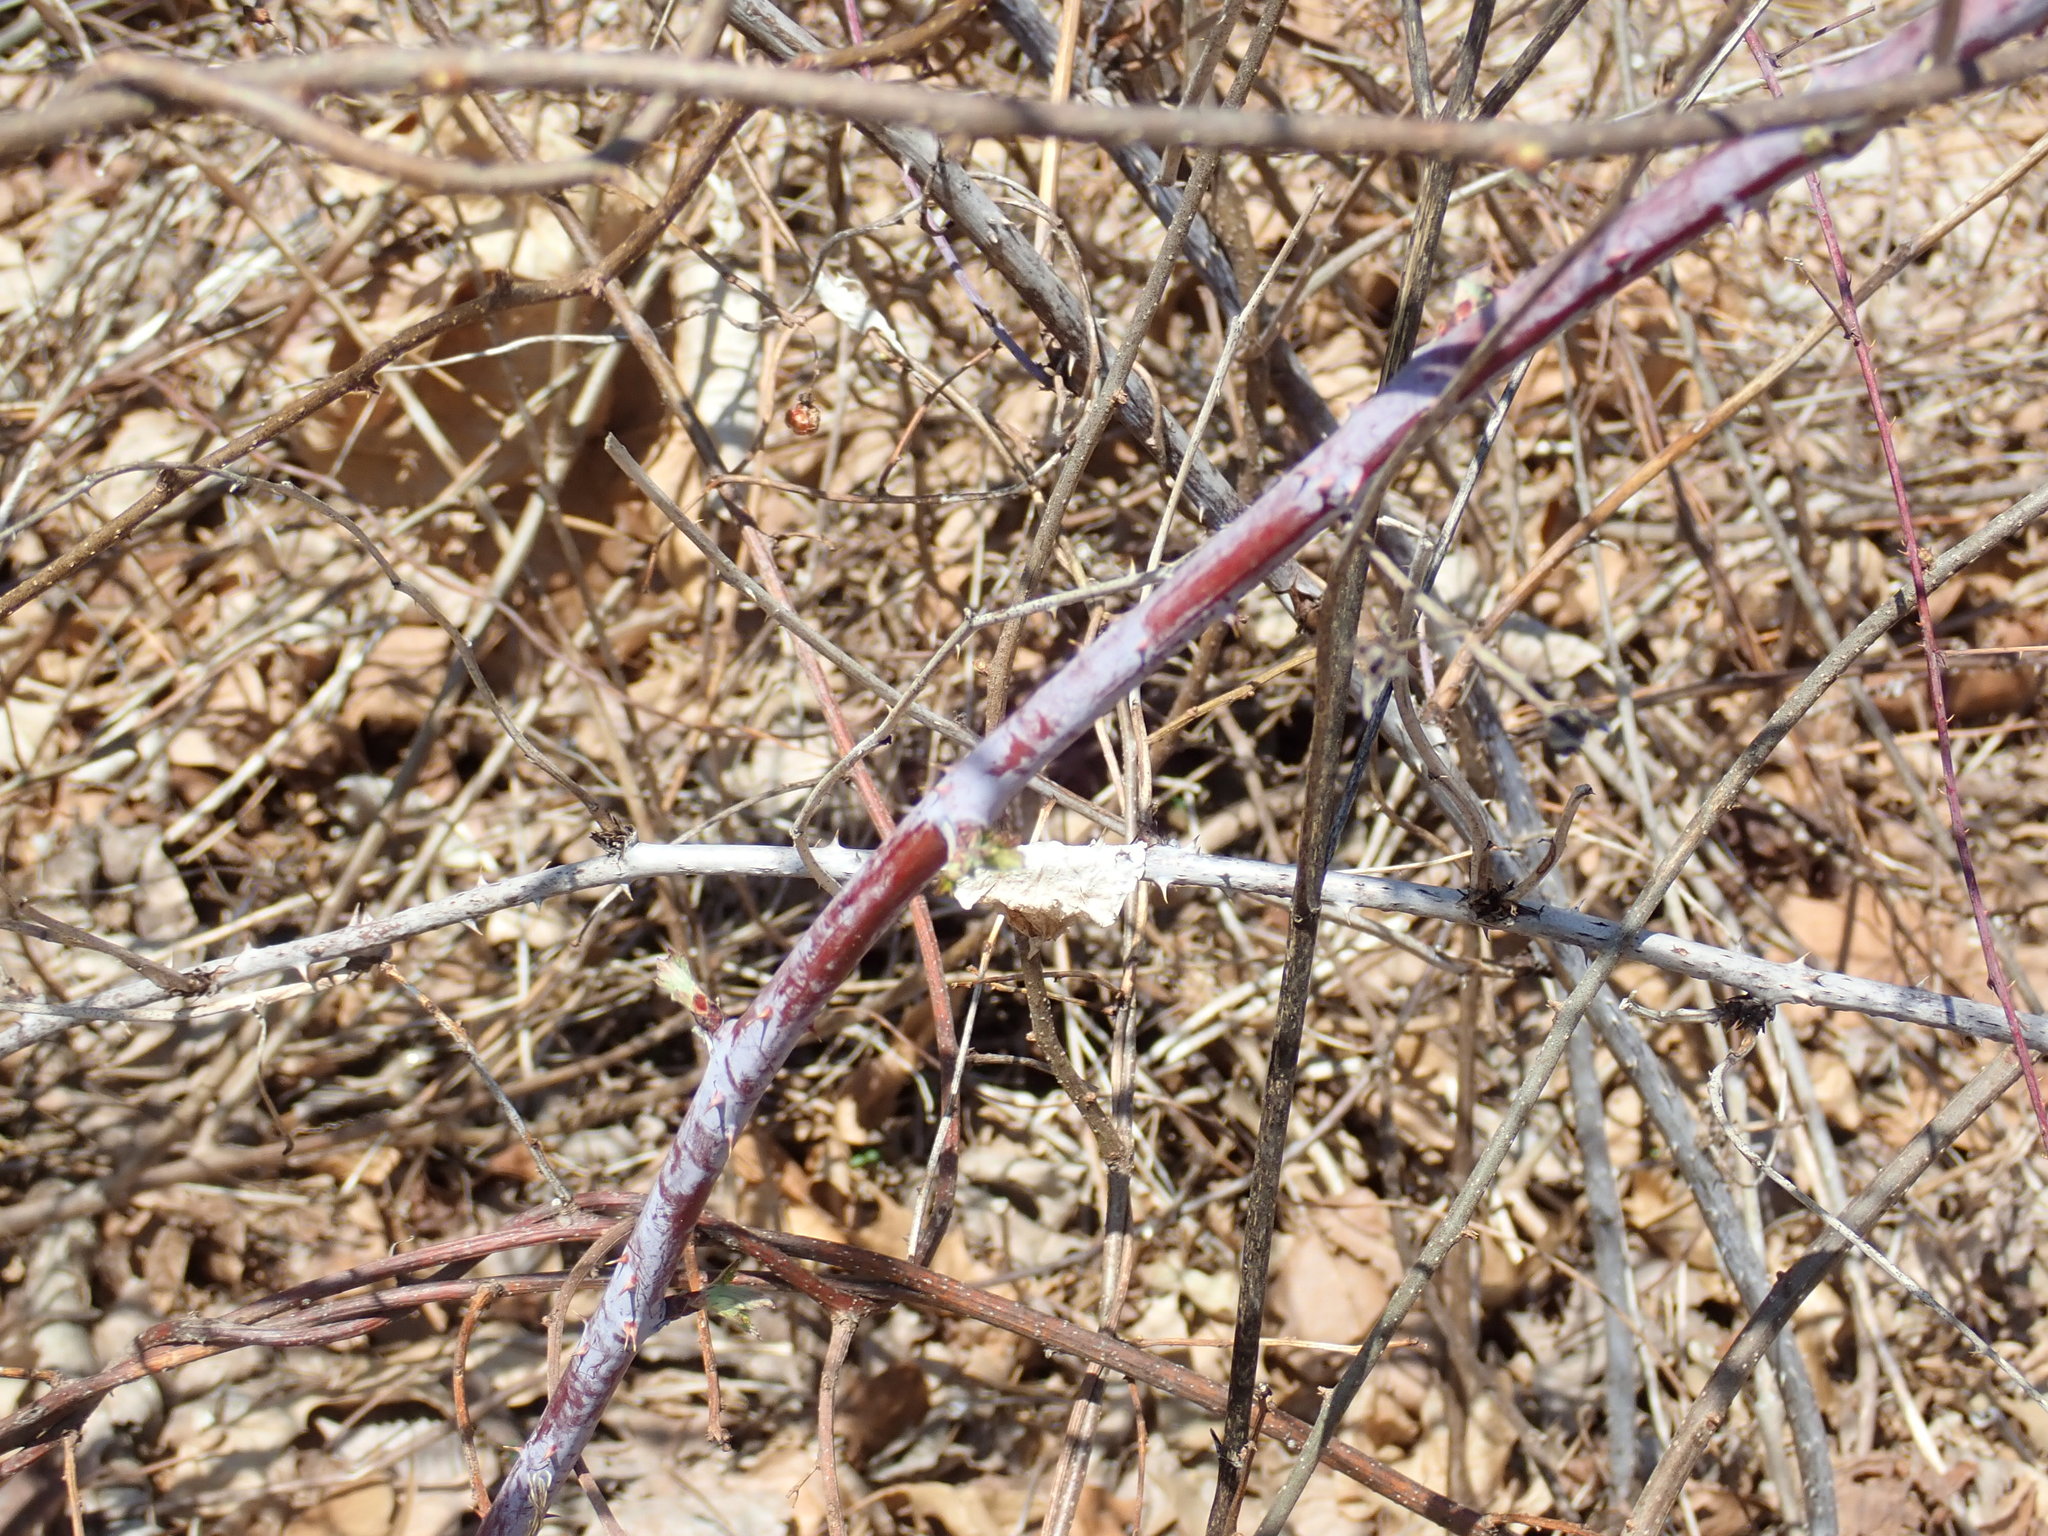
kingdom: Plantae
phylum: Tracheophyta
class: Magnoliopsida
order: Rosales
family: Rosaceae
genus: Rubus
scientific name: Rubus occidentalis
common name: Black raspberry
